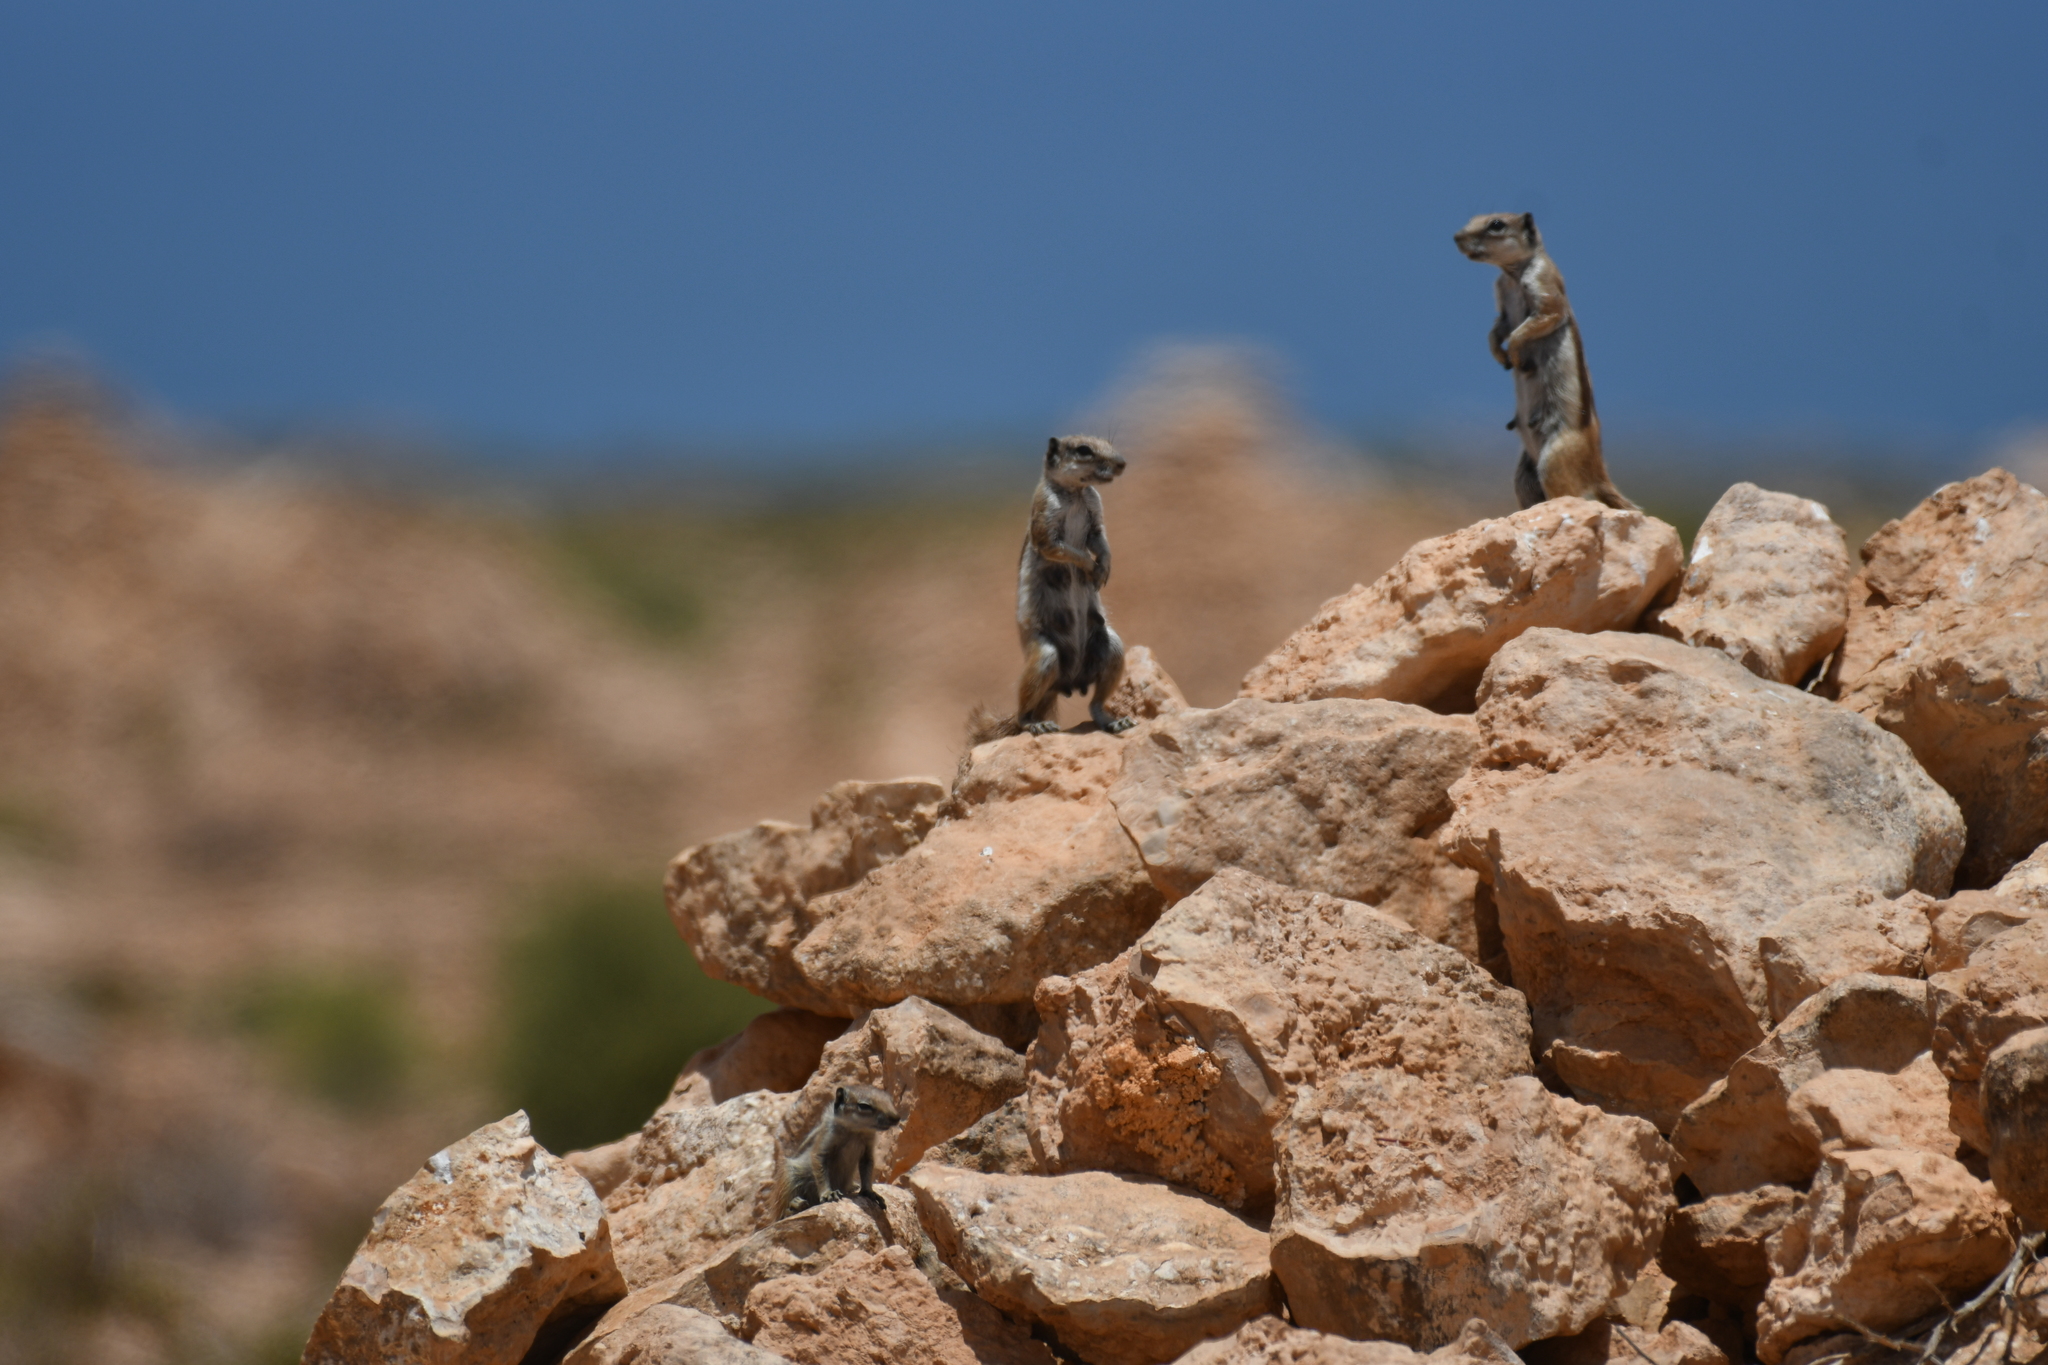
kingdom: Animalia
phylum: Chordata
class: Mammalia
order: Rodentia
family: Sciuridae
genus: Atlantoxerus
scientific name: Atlantoxerus getulus
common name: Barbary ground squirrel
